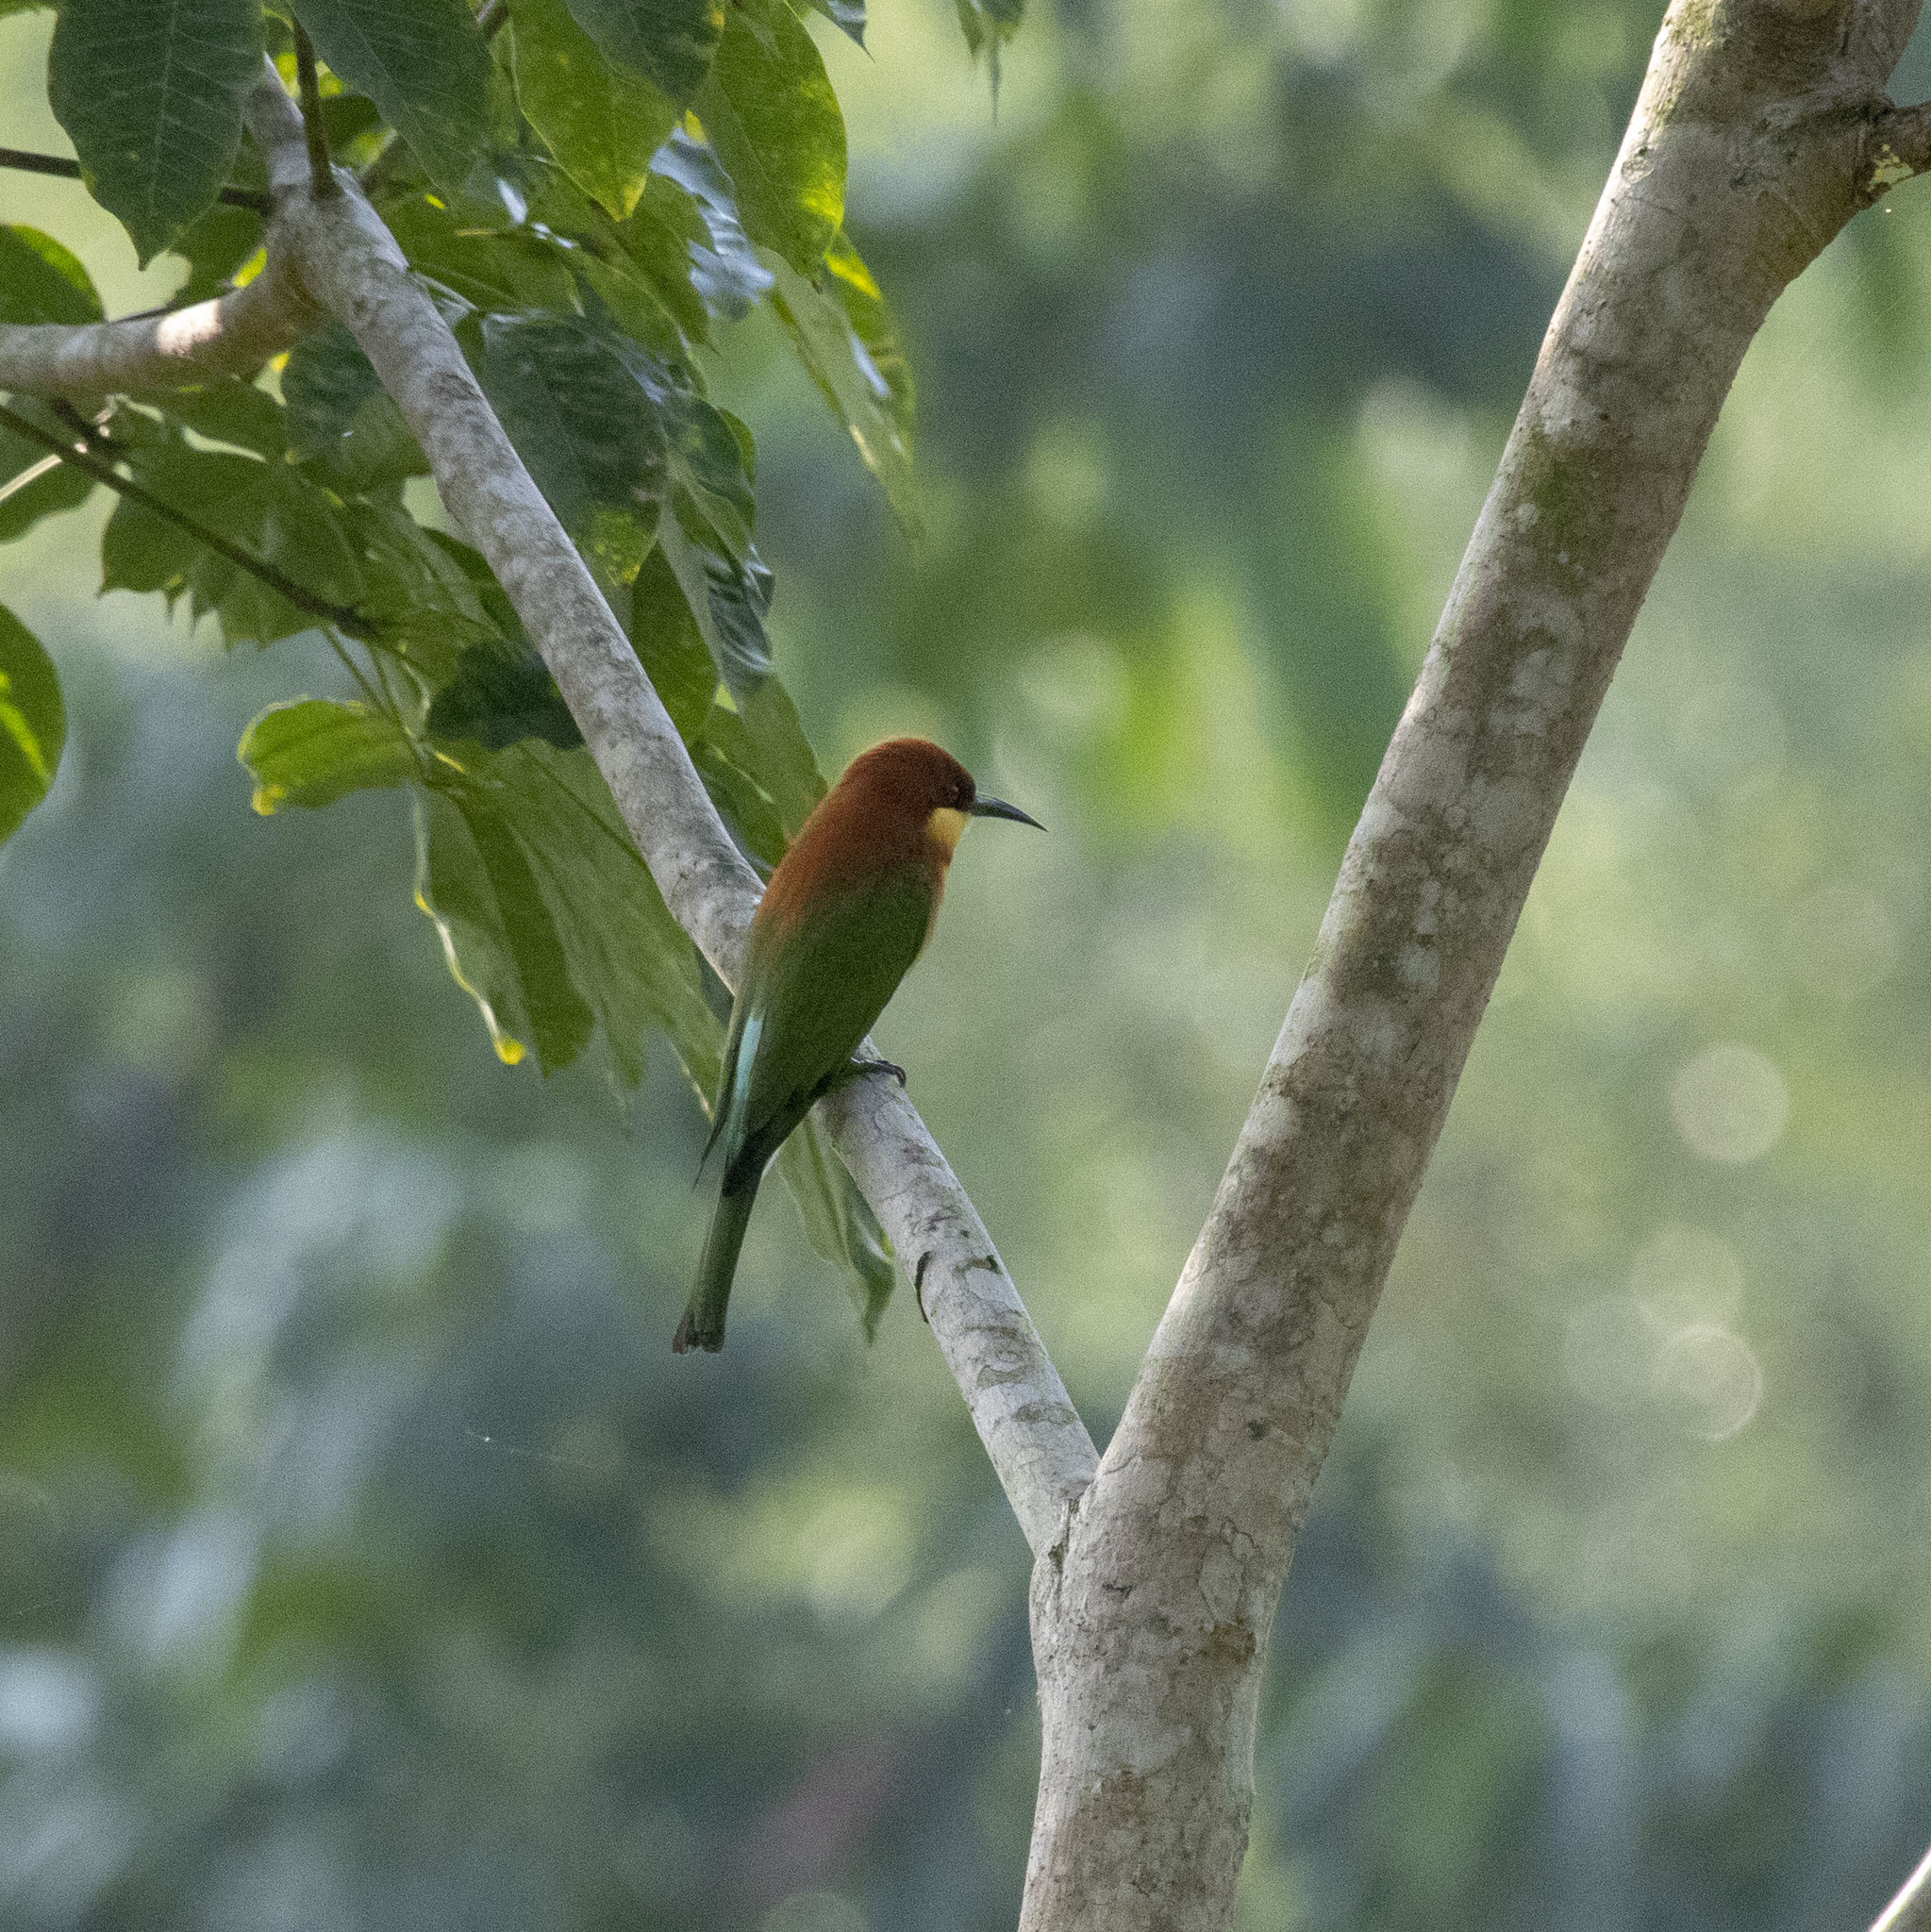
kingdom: Animalia
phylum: Chordata
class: Aves
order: Coraciiformes
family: Meropidae
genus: Merops
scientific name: Merops leschenaulti
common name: Chestnut-headed bee-eater
